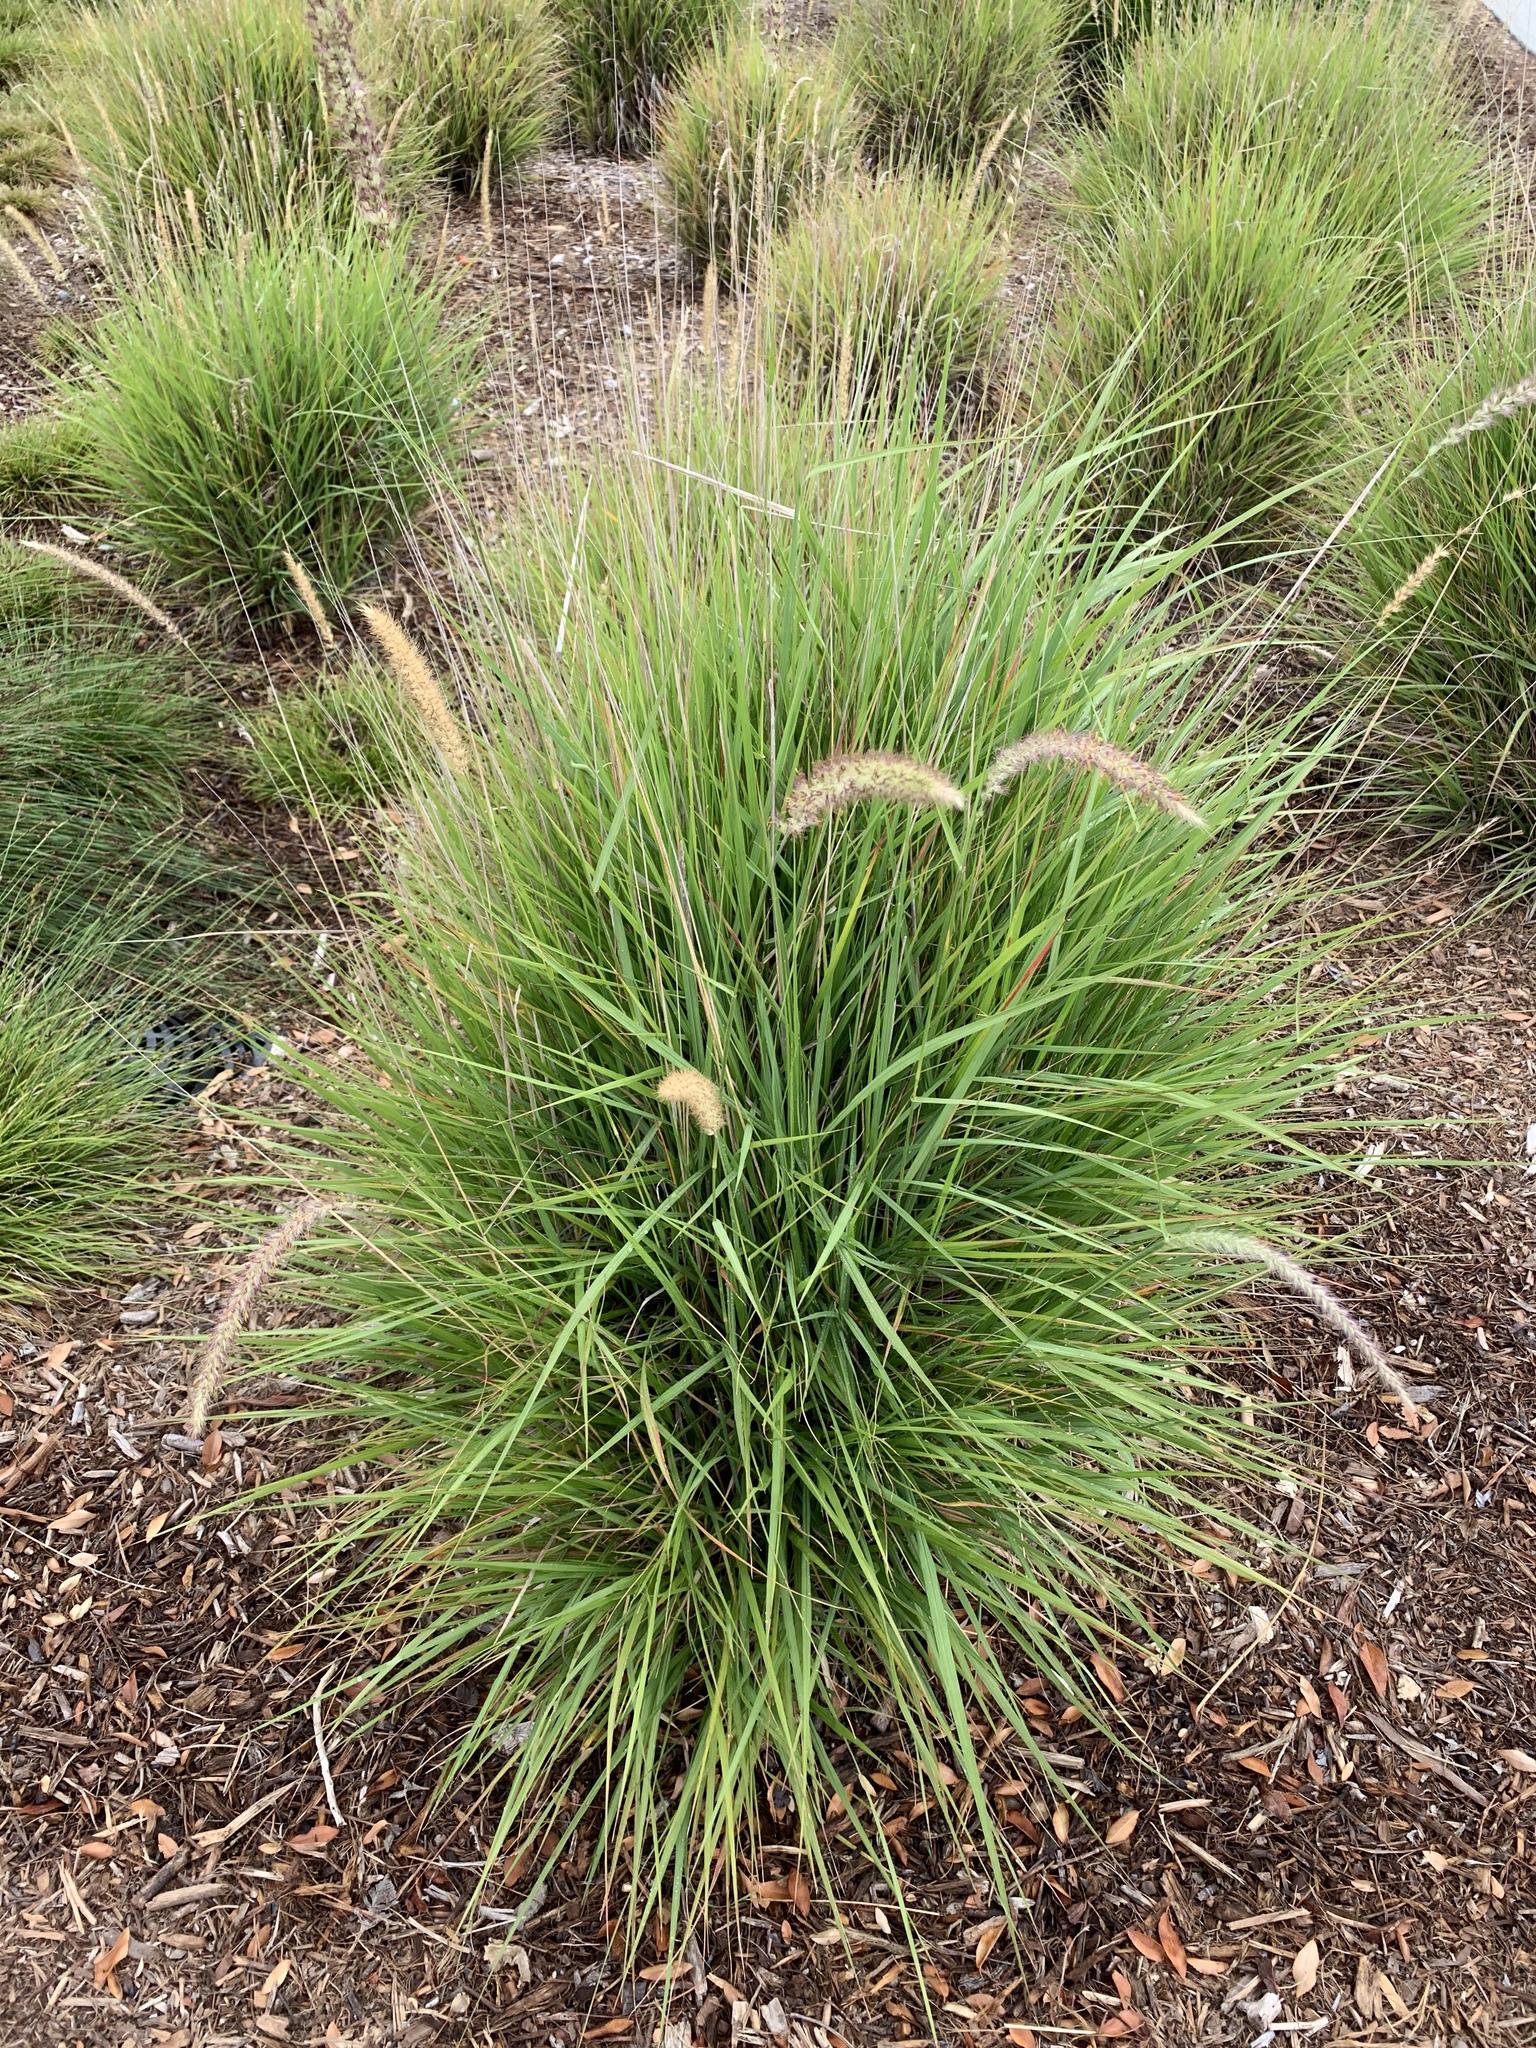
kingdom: Plantae
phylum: Tracheophyta
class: Liliopsida
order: Poales
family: Poaceae
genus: Cenchrus
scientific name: Cenchrus setaceus
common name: Crimson fountaingrass
